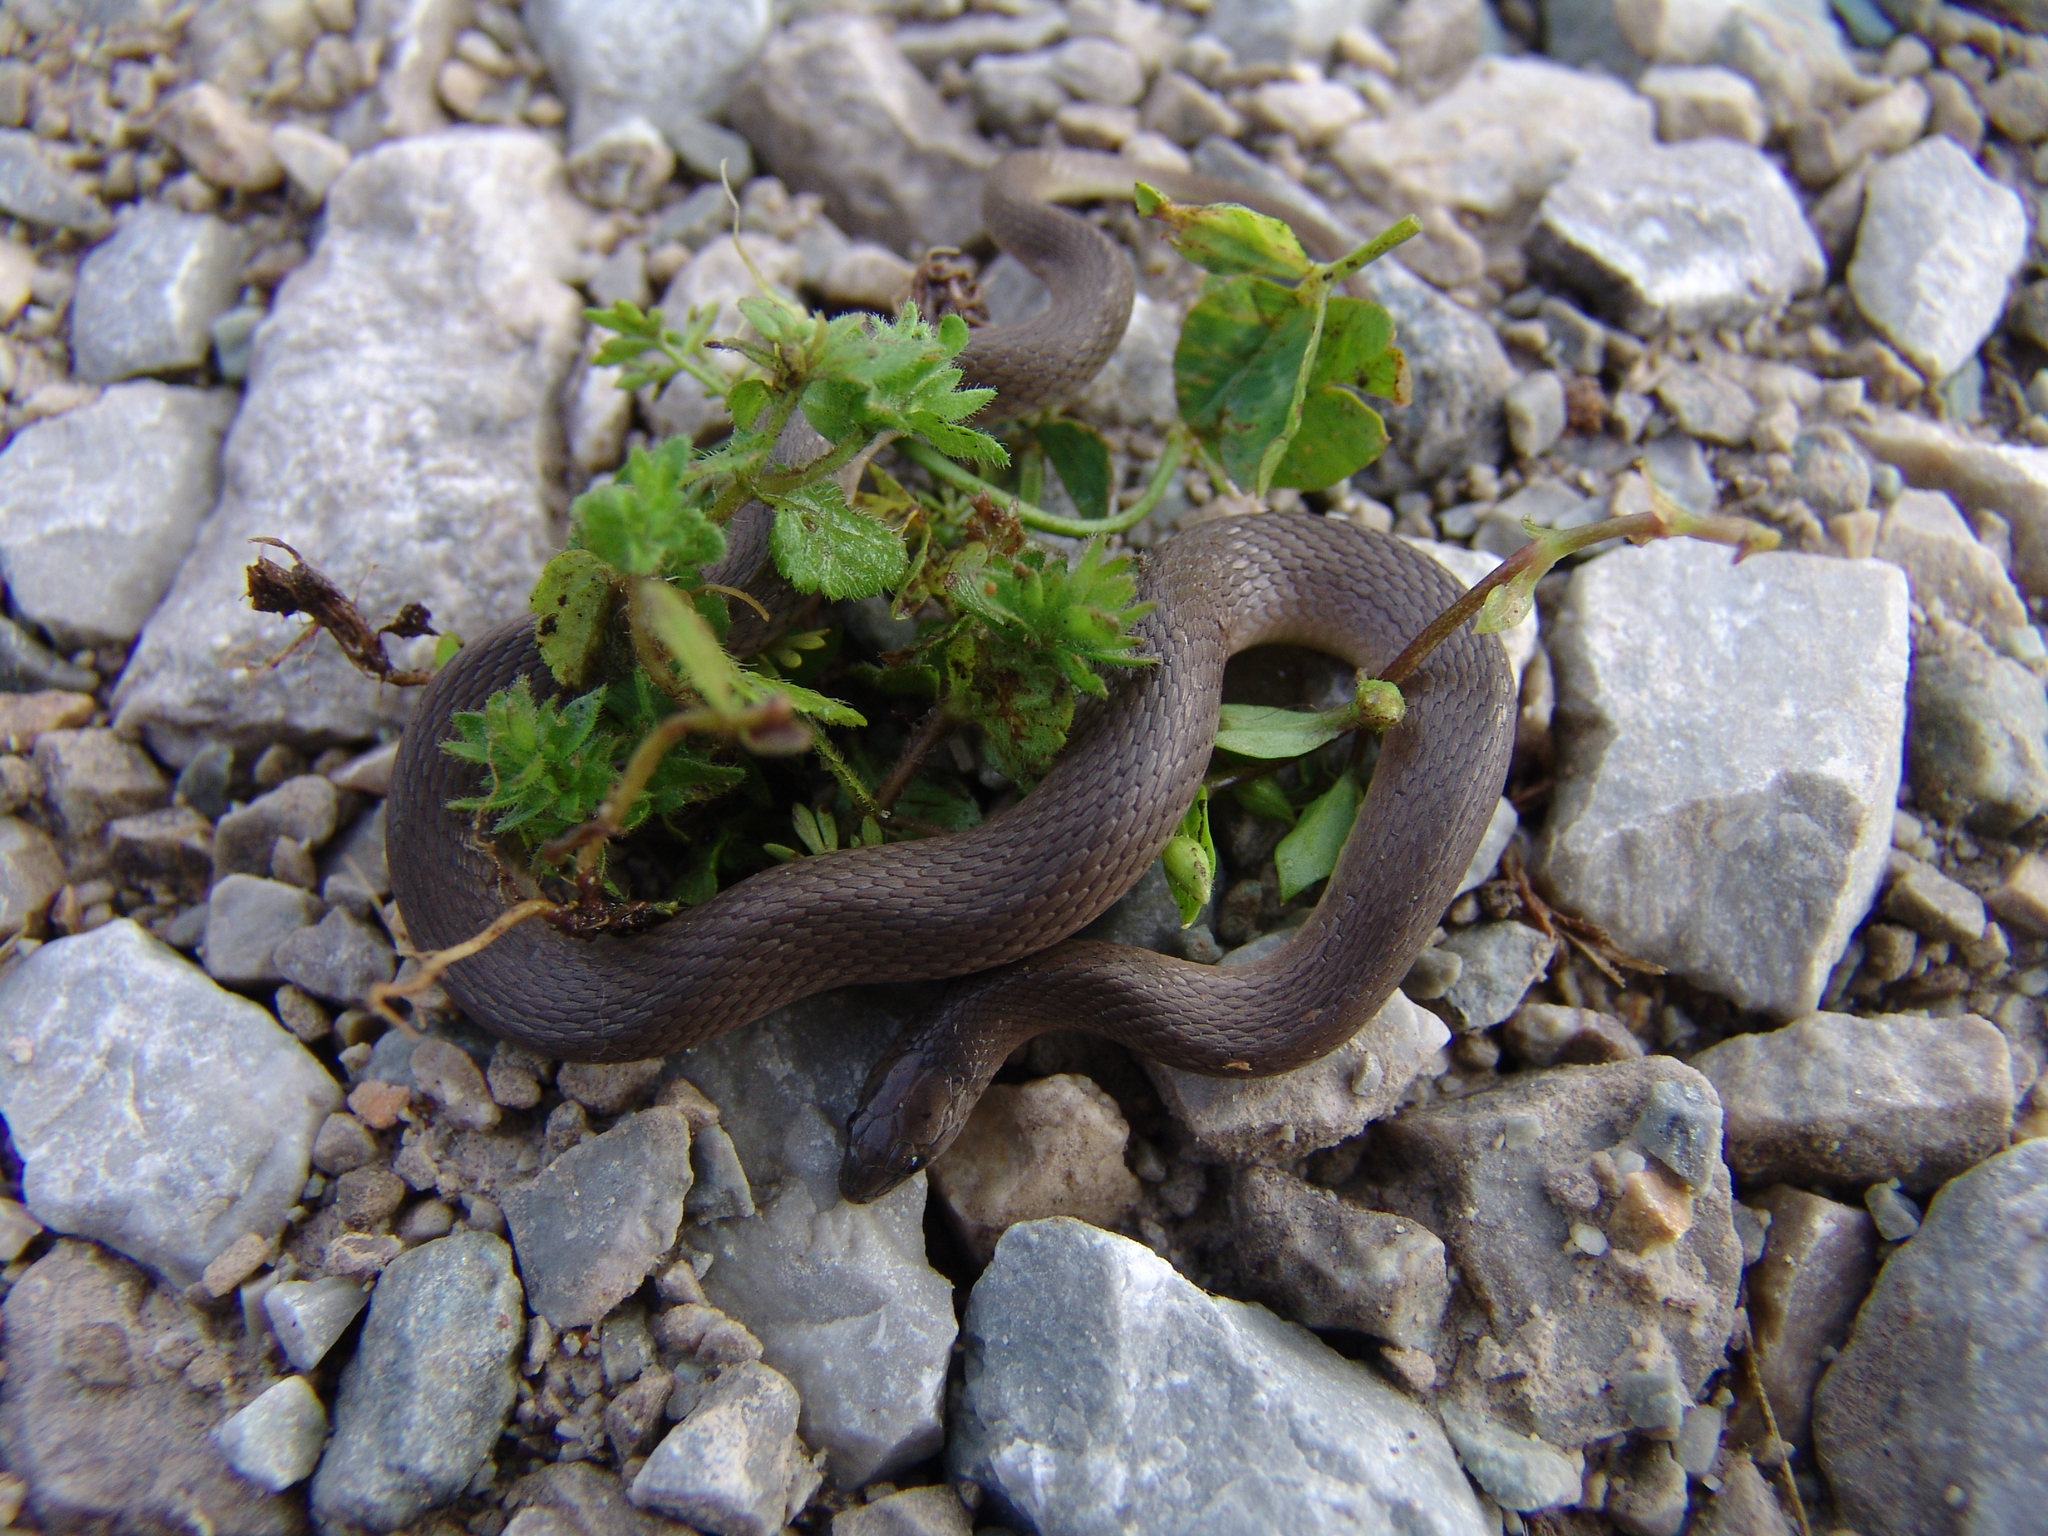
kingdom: Animalia
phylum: Chordata
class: Squamata
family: Colubridae
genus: Haldea
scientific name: Haldea striatula
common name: Rough earth snake
